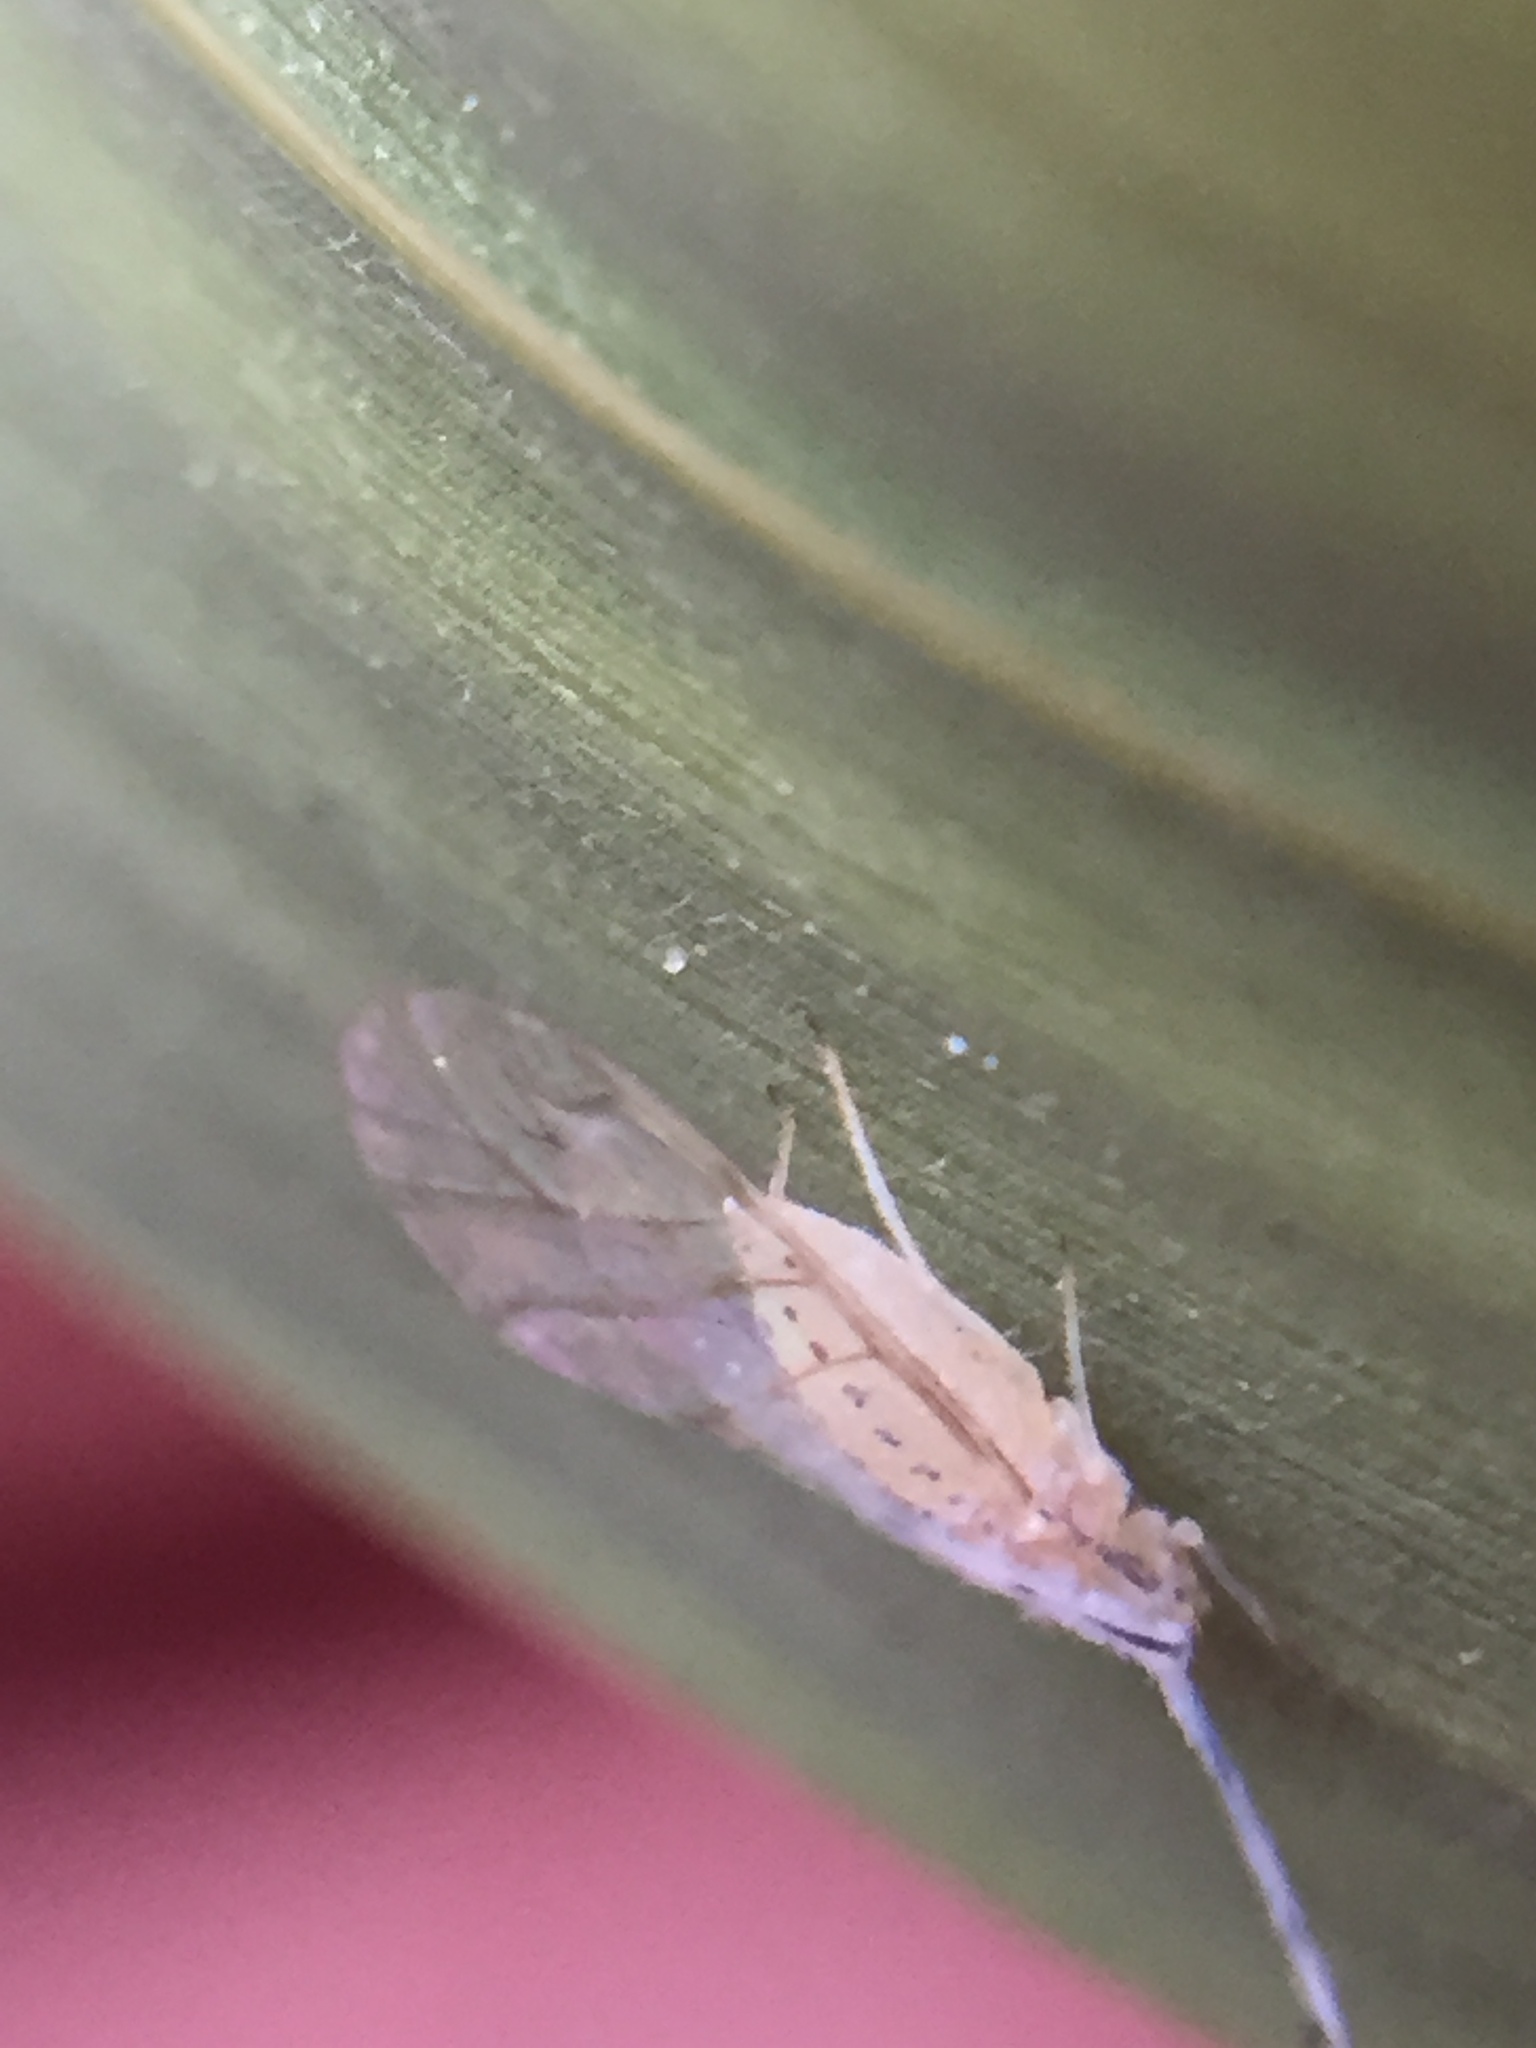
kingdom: Animalia
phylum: Arthropoda
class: Insecta
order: Hemiptera
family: Aphididae
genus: Takecallis
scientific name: Takecallis arundinariae
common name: Black-tailed bamboo aphid
